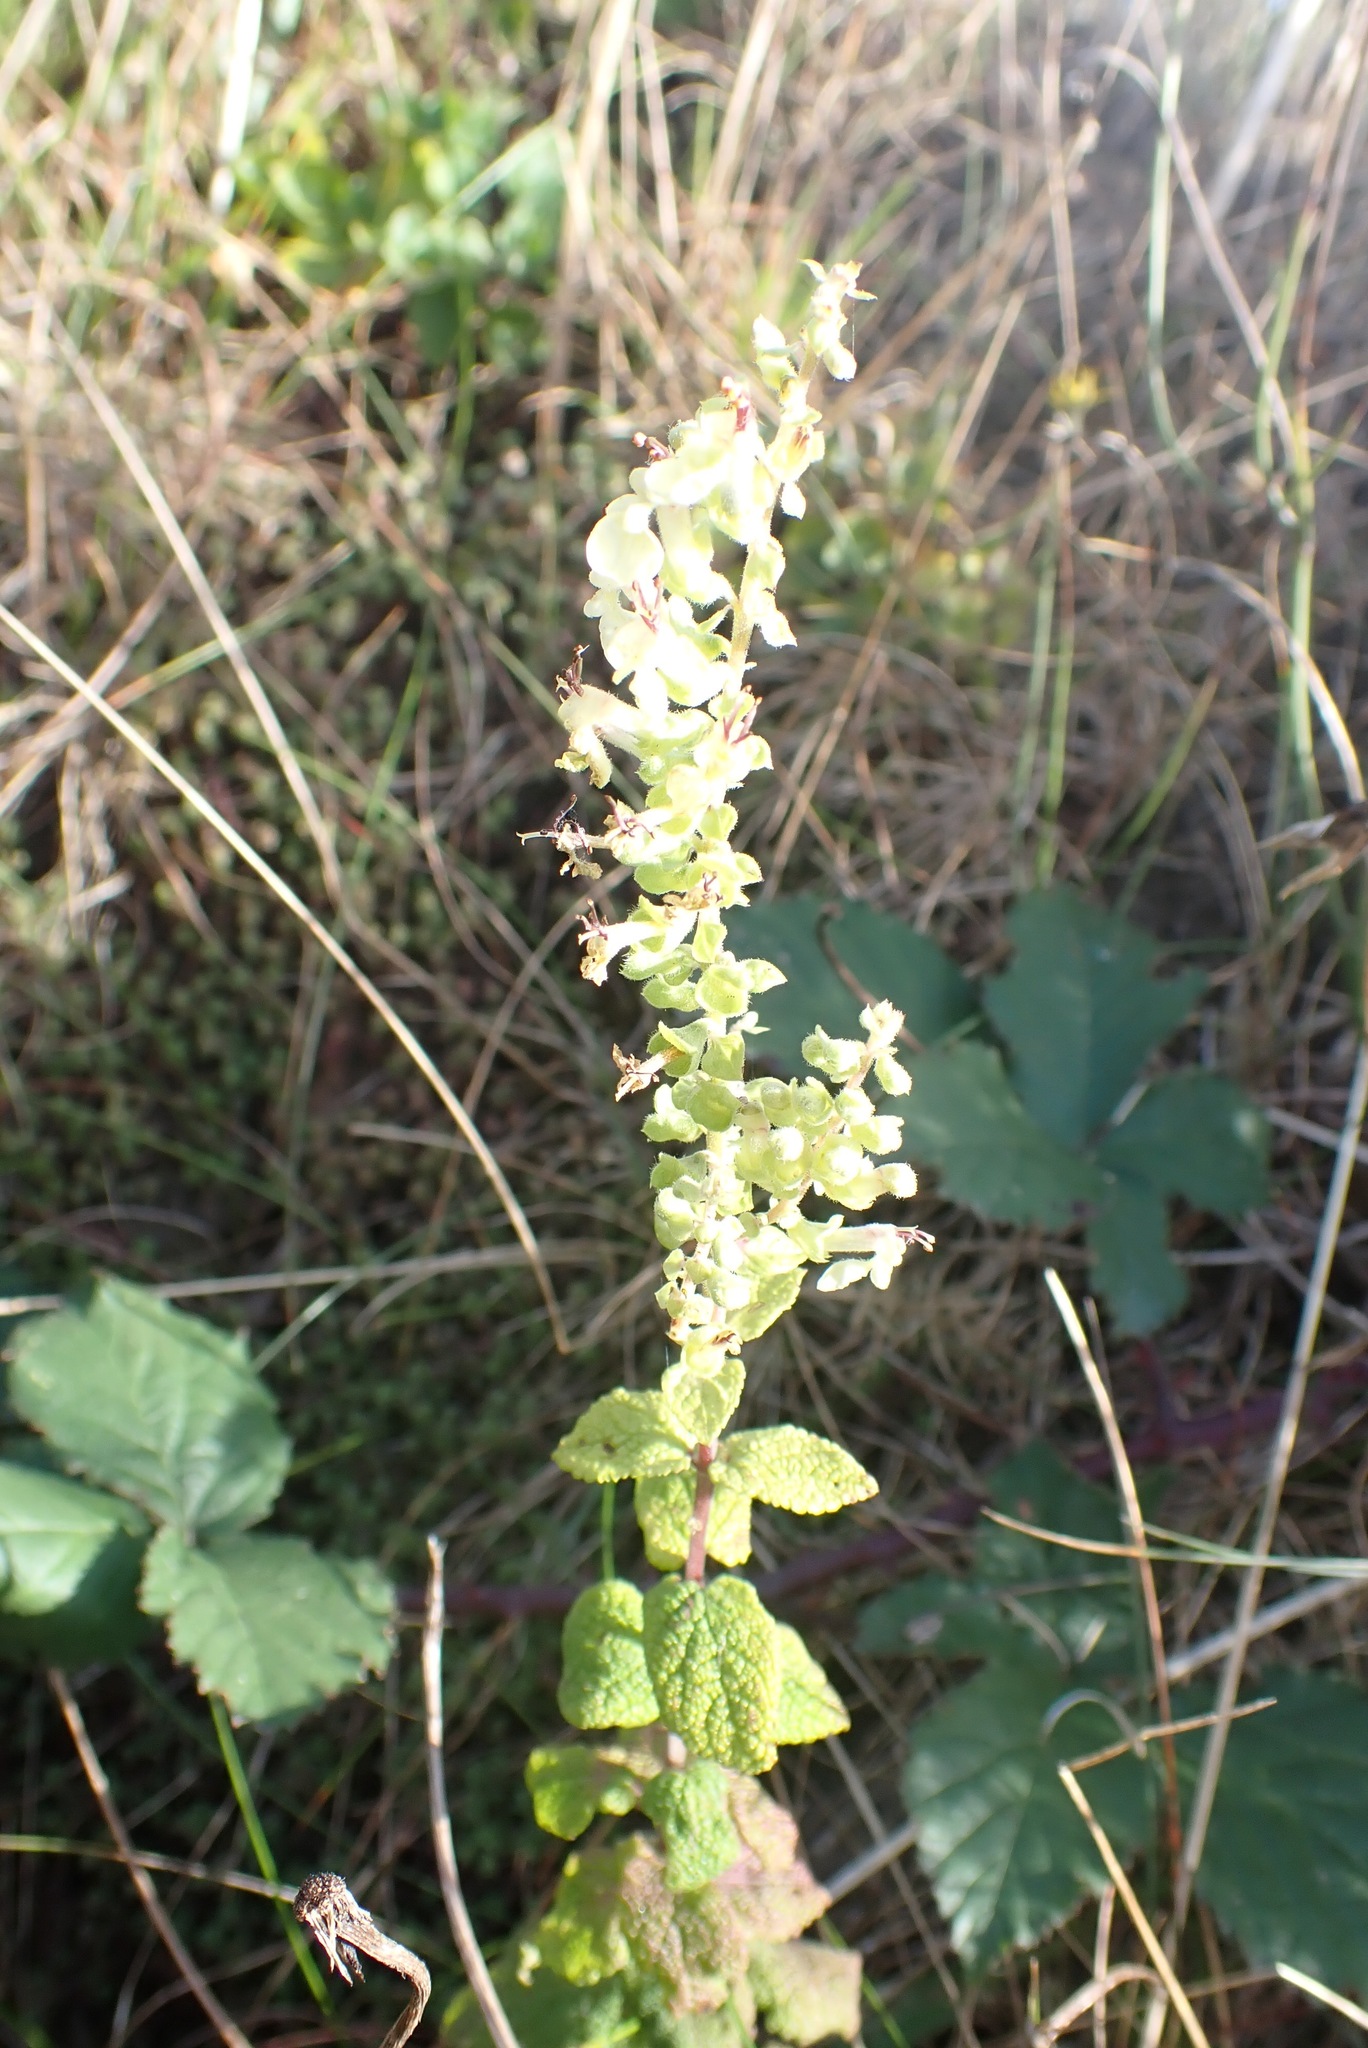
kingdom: Plantae
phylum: Tracheophyta
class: Magnoliopsida
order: Lamiales
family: Lamiaceae
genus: Teucrium
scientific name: Teucrium scorodonia
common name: Woodland germander
